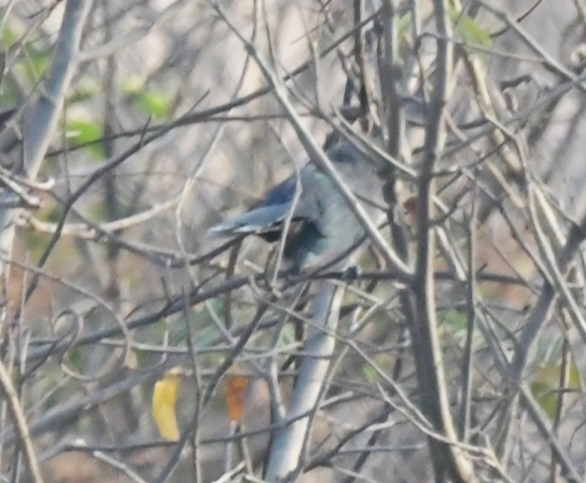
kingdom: Animalia
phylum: Chordata
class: Aves
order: Cuculiformes
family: Cuculidae
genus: Rhopodytes
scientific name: Rhopodytes viridirostris
